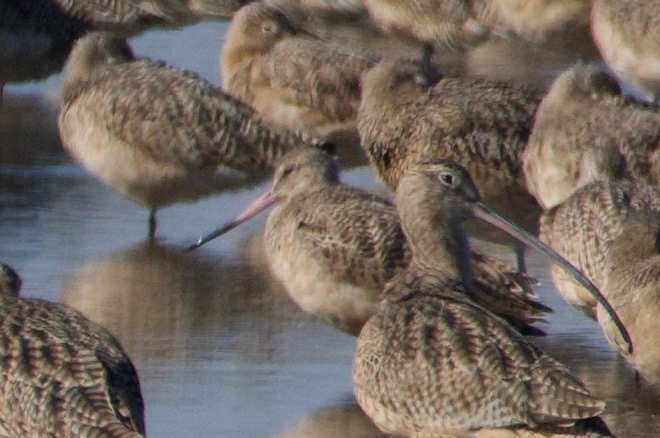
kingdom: Animalia
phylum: Chordata
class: Aves
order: Charadriiformes
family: Scolopacidae
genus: Limosa
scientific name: Limosa fedoa
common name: Marbled godwit
